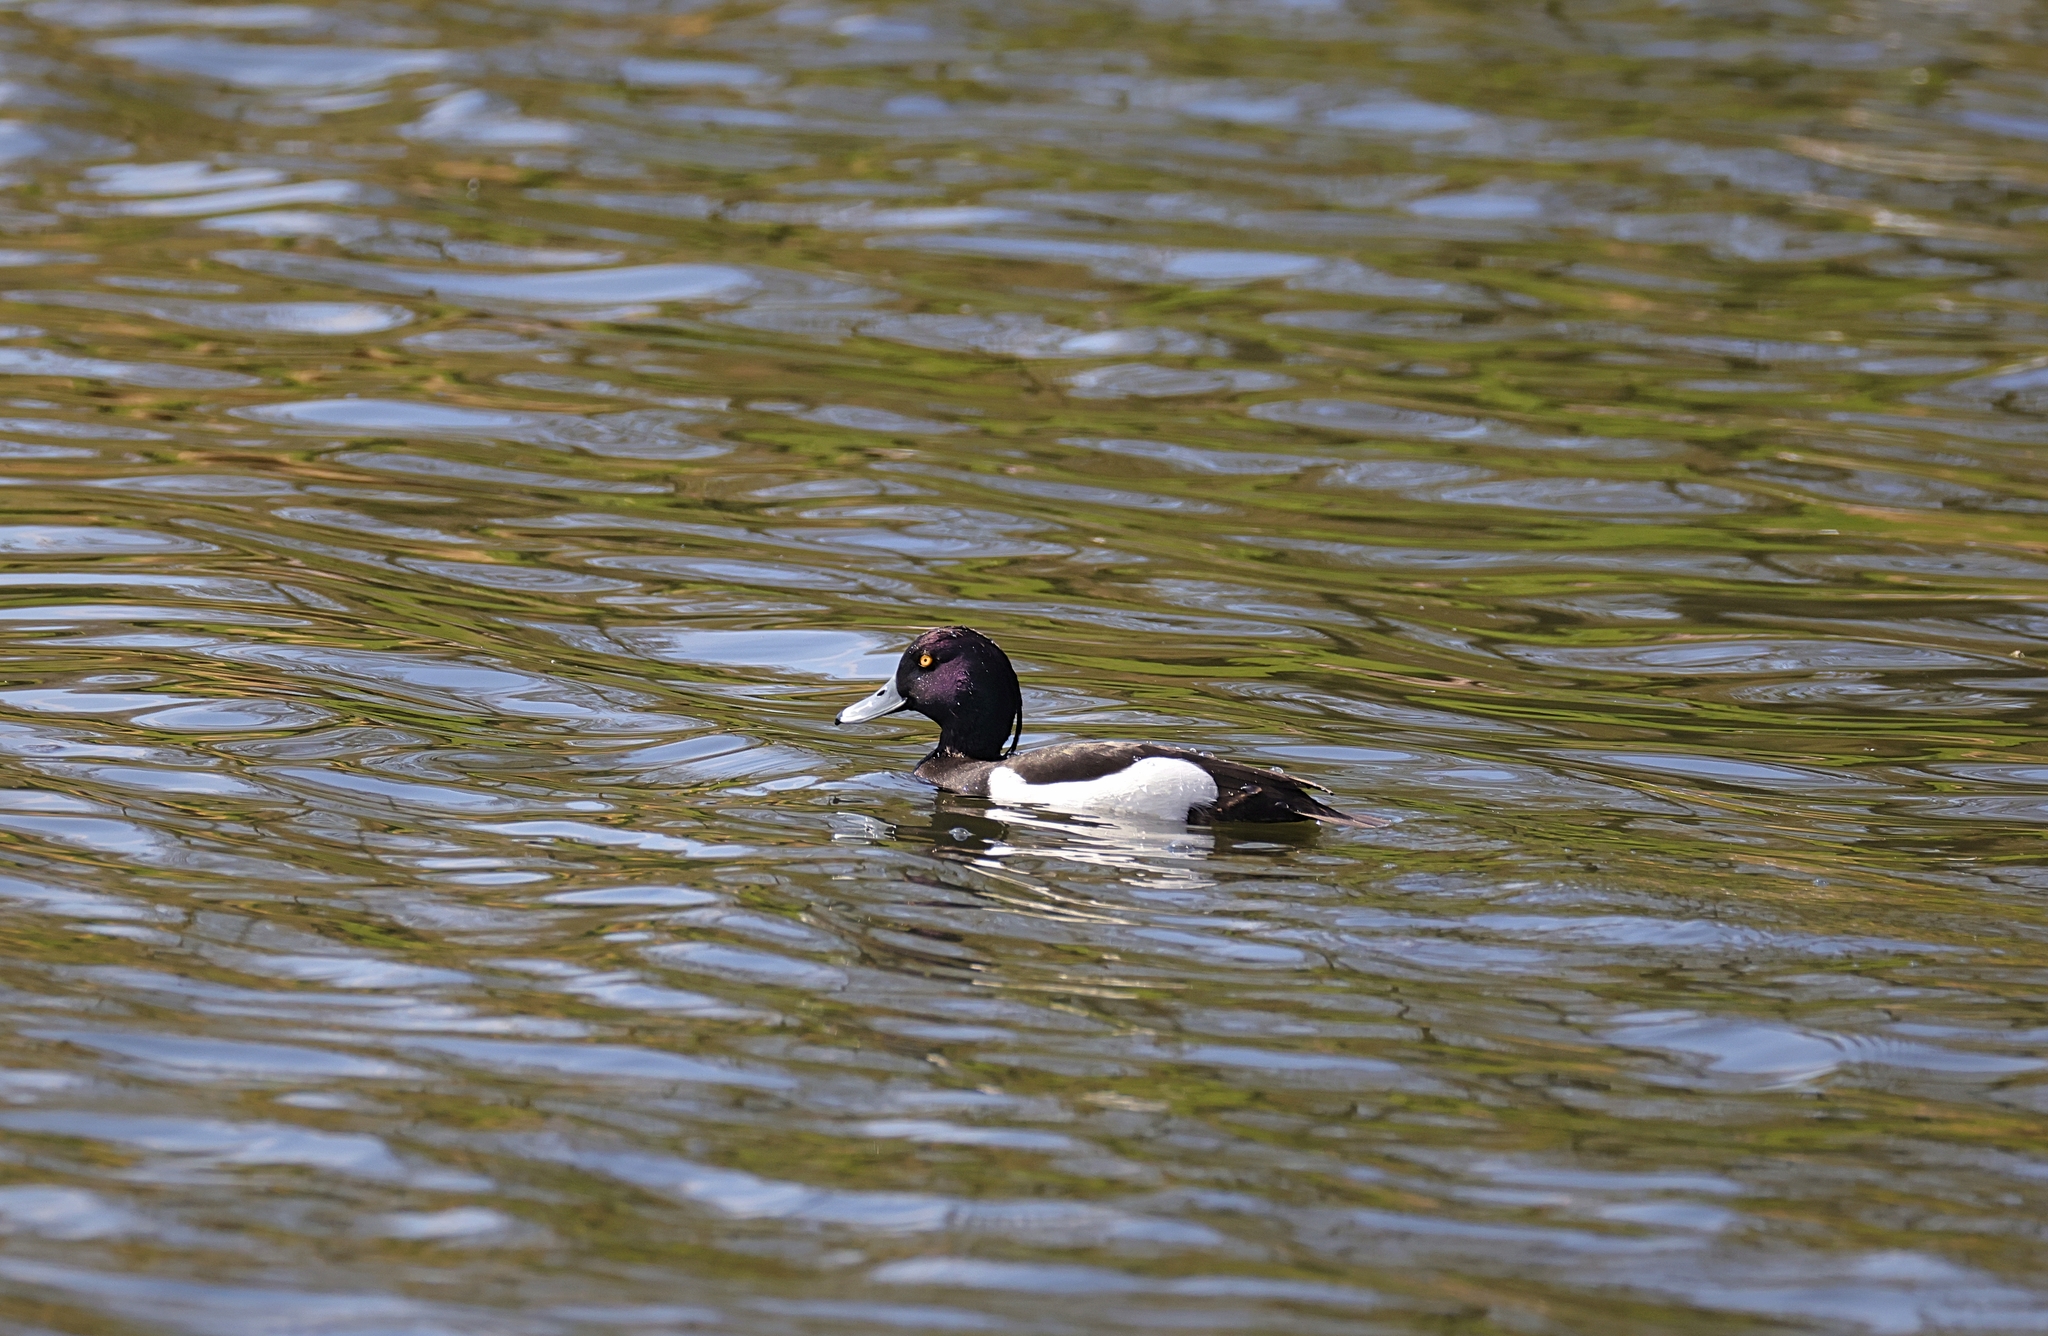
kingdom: Animalia
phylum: Chordata
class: Aves
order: Anseriformes
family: Anatidae
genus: Aythya
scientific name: Aythya fuligula
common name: Tufted duck
